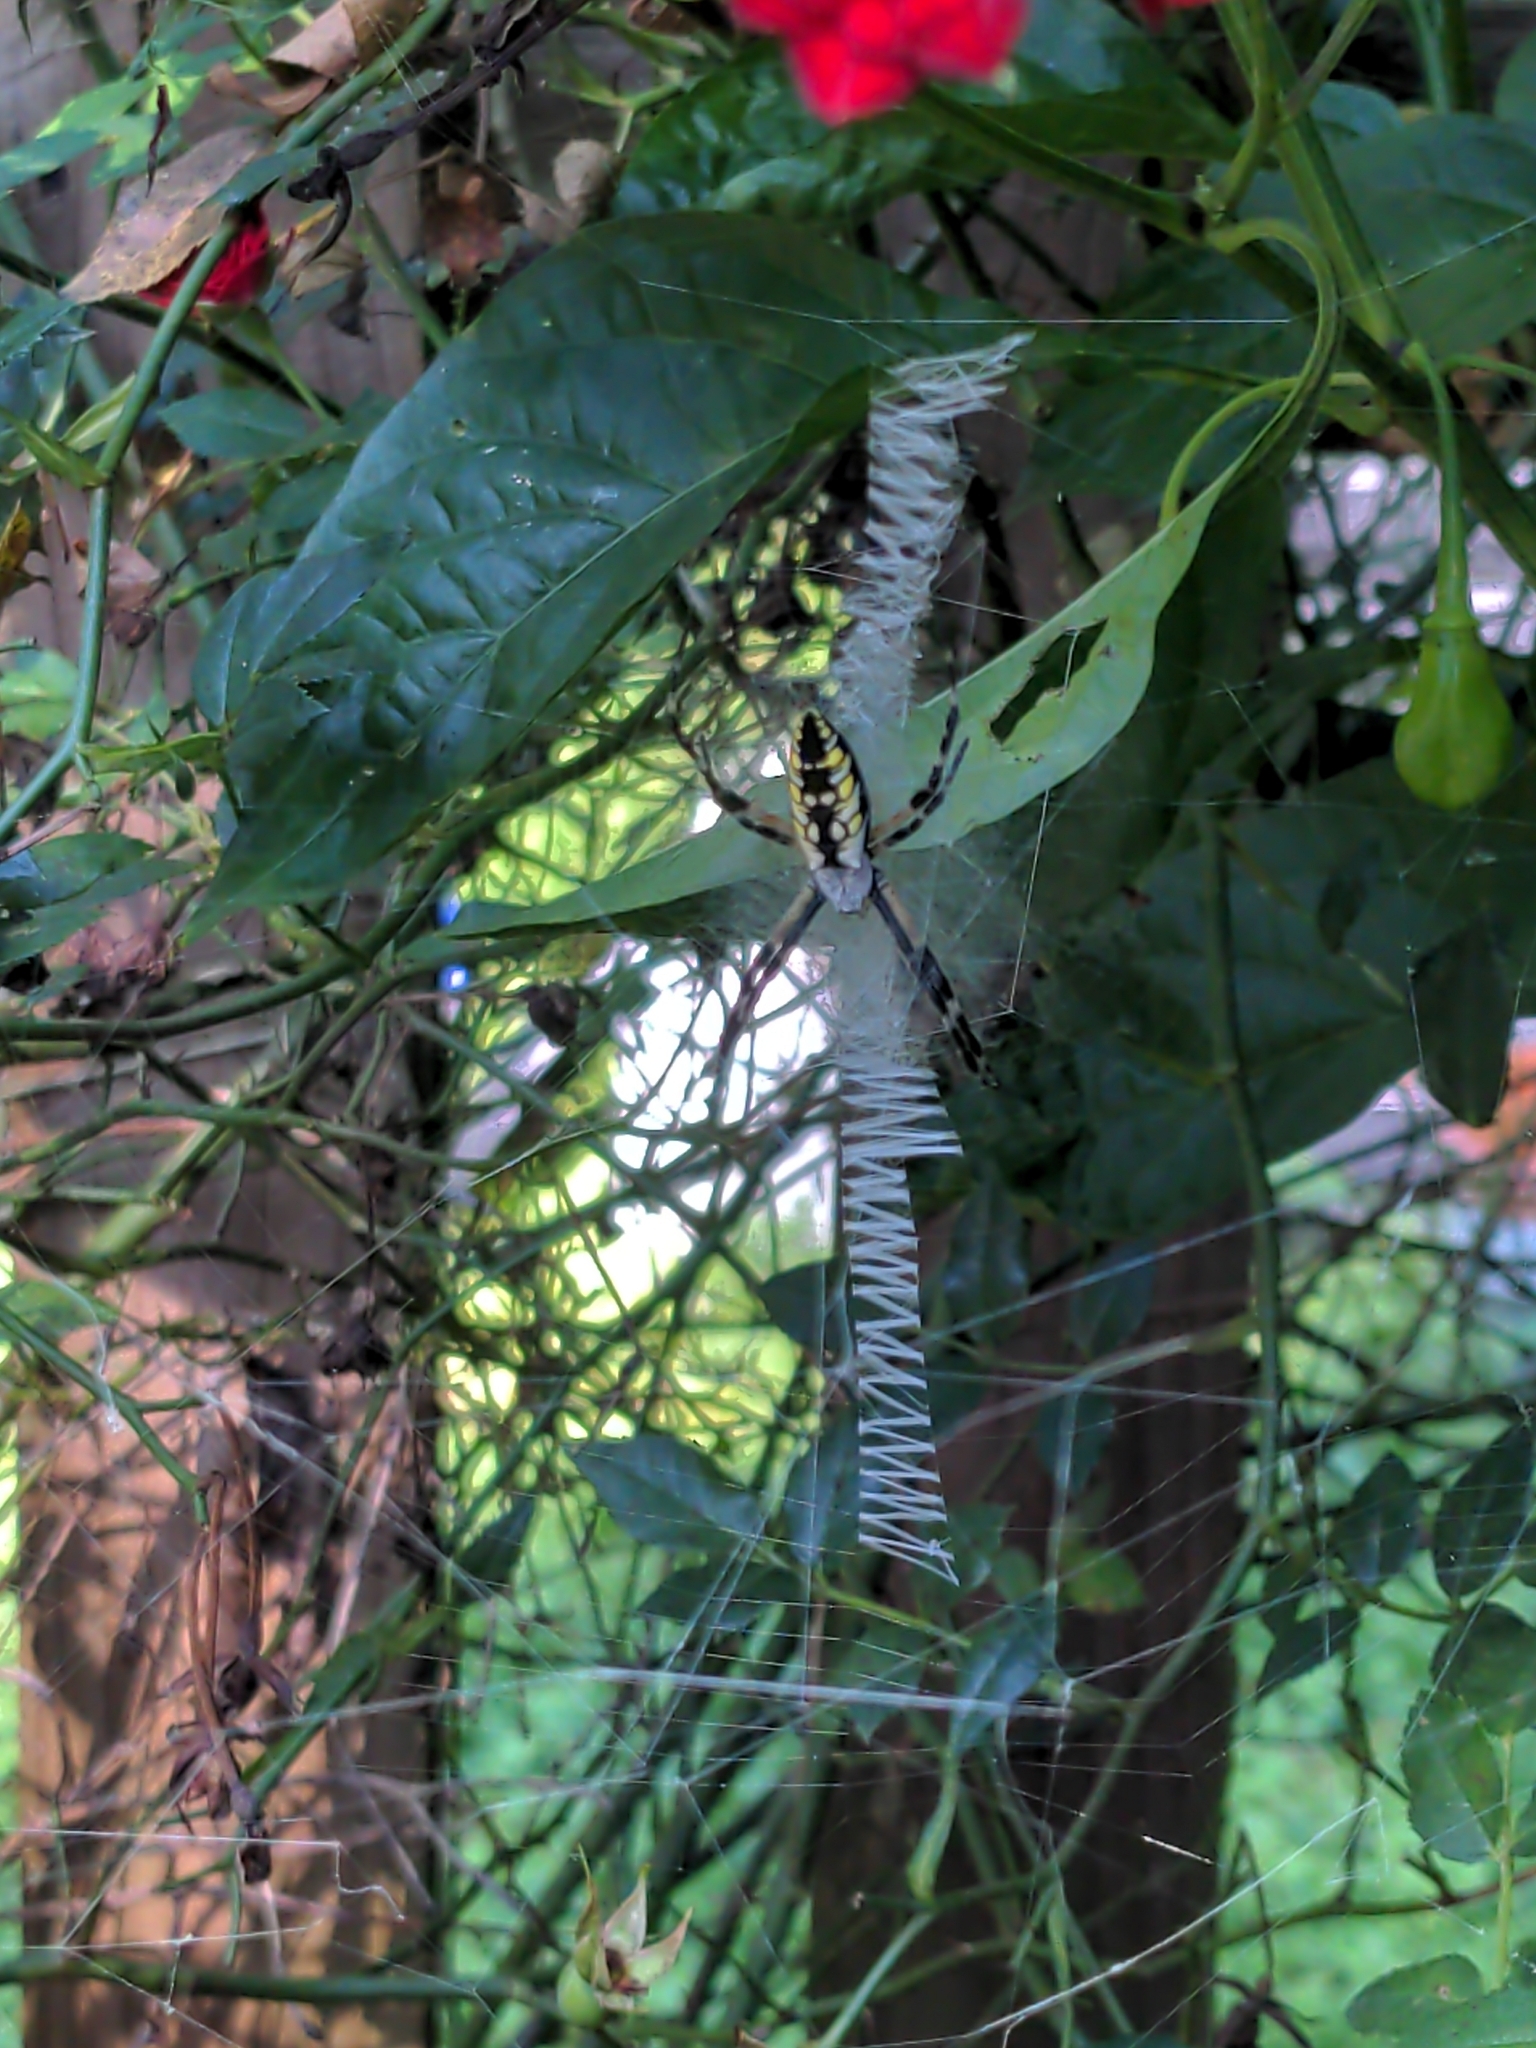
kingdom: Animalia
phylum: Arthropoda
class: Arachnida
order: Araneae
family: Araneidae
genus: Argiope
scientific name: Argiope aurantia
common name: Orb weavers
